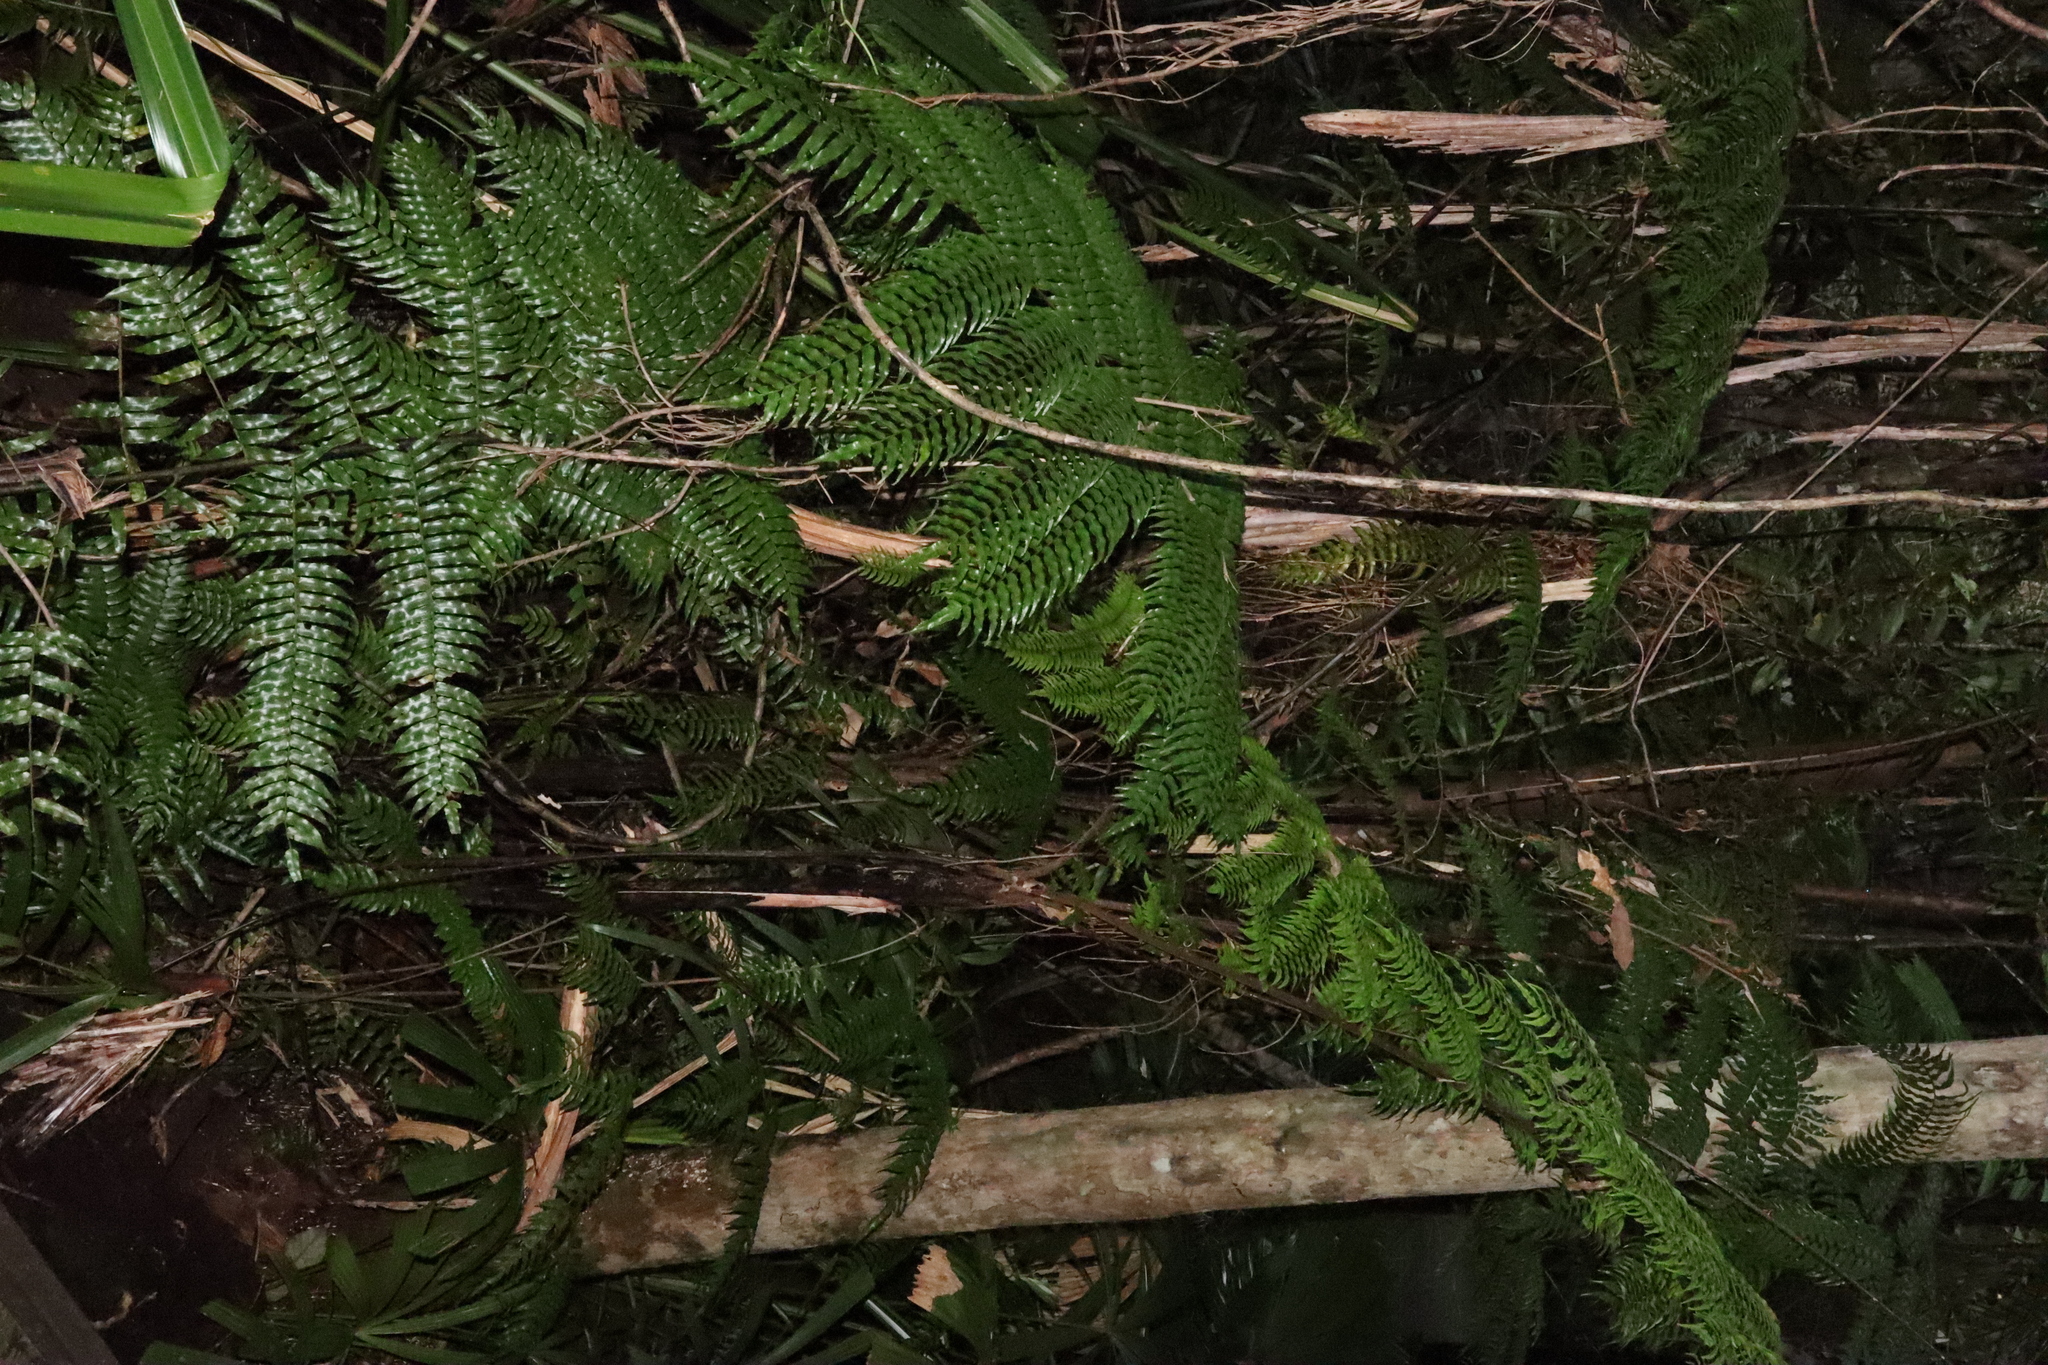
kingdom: Plantae
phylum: Tracheophyta
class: Polypodiopsida
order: Cyatheales
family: Cyatheaceae
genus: Gymnosphaera
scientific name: Gymnosphaera rebeccae
